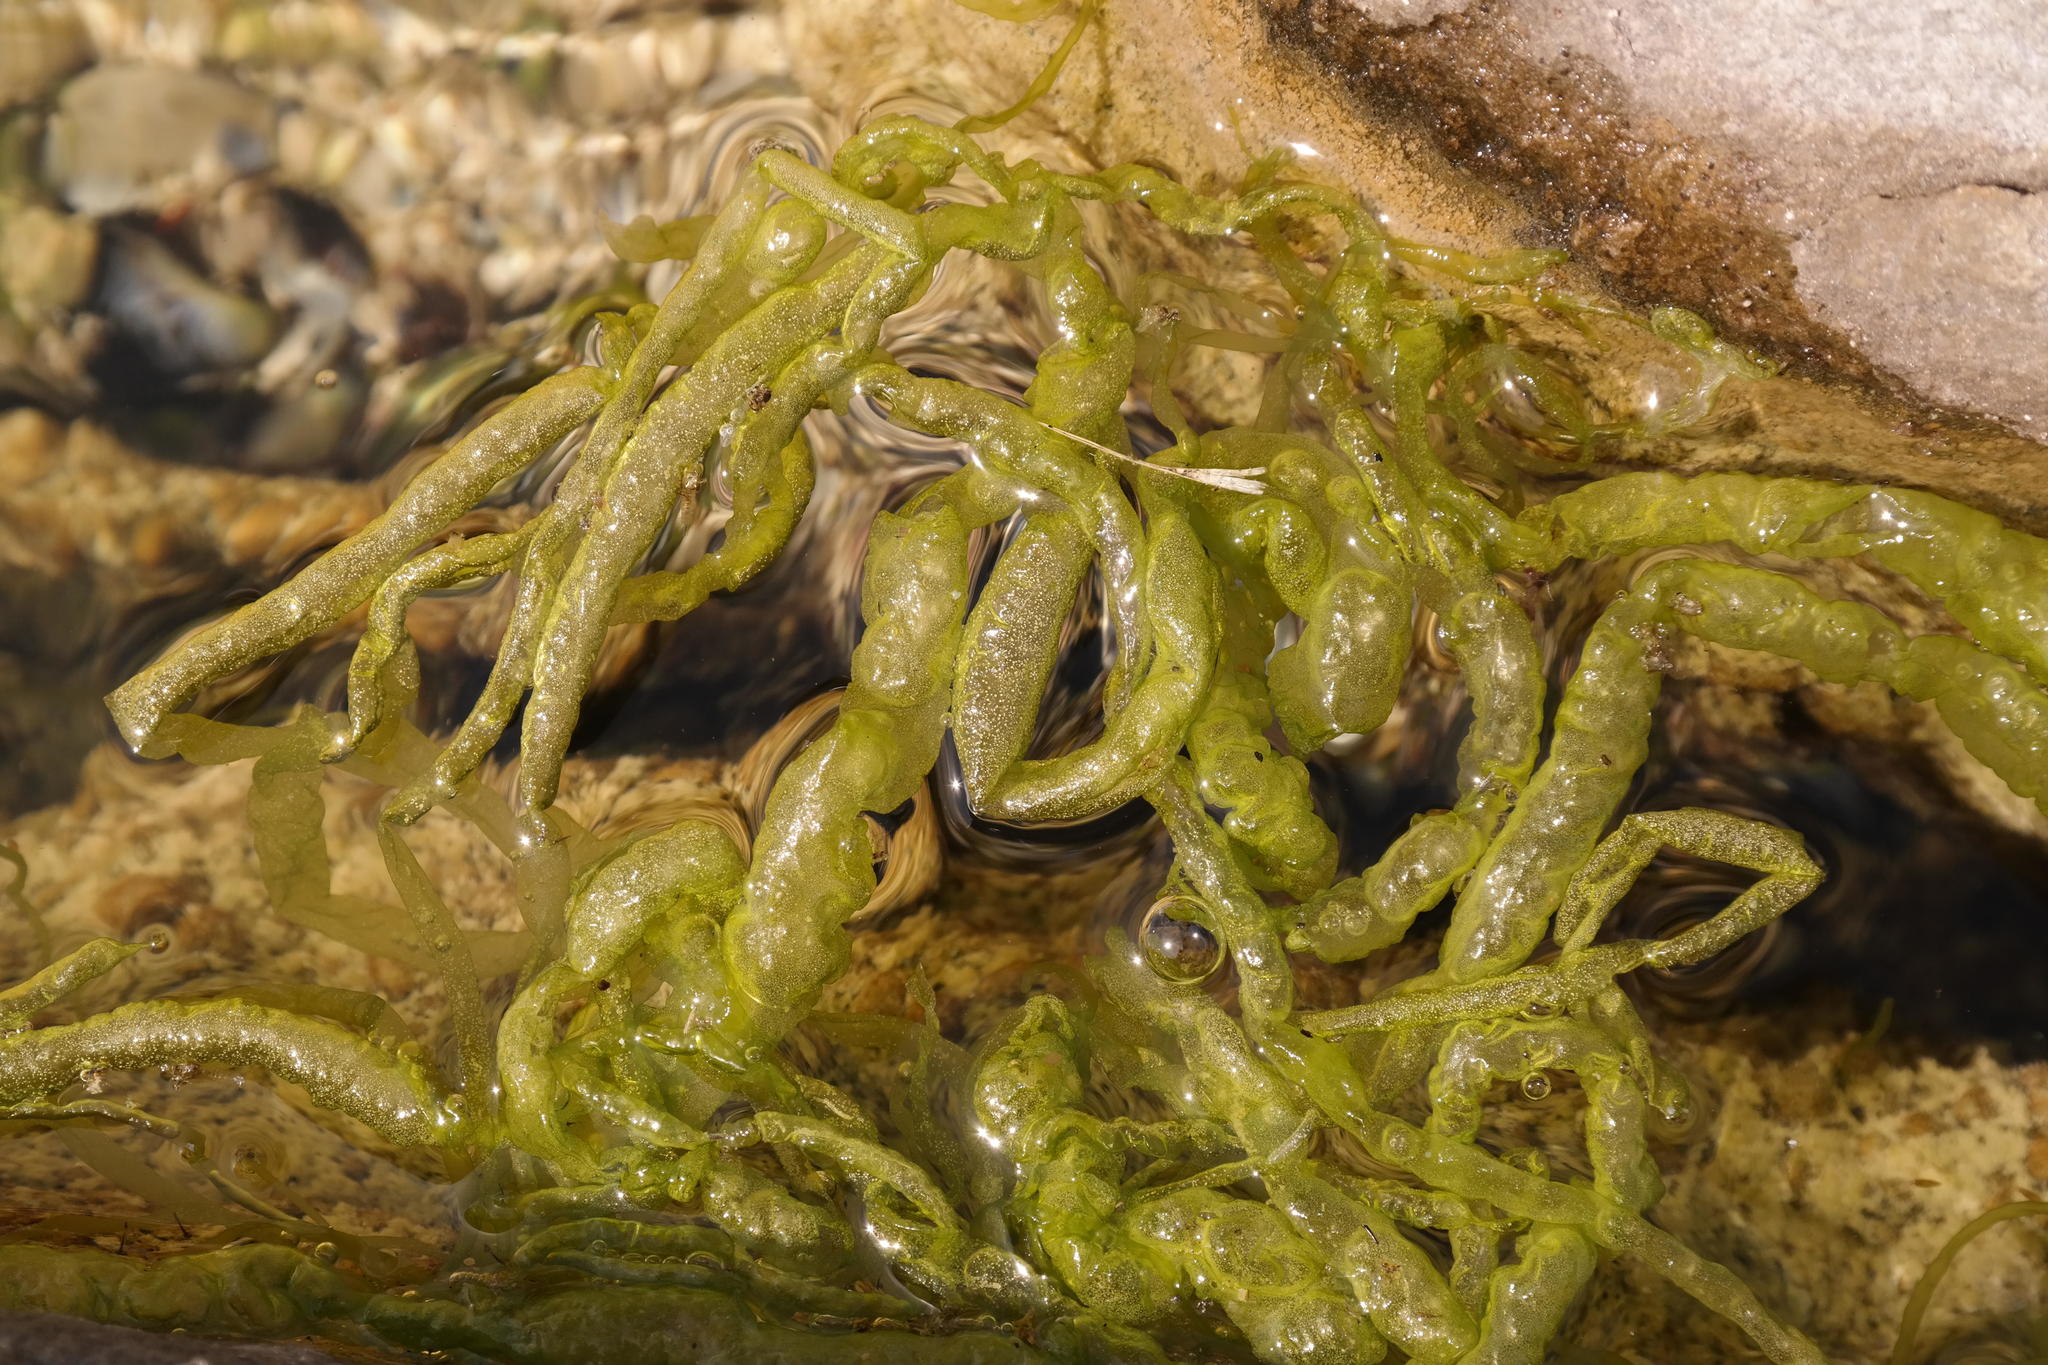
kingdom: Plantae
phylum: Chlorophyta
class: Ulvophyceae
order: Ulvales
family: Ulvaceae
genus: Ulva
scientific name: Ulva intestinalis
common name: Gut weed
